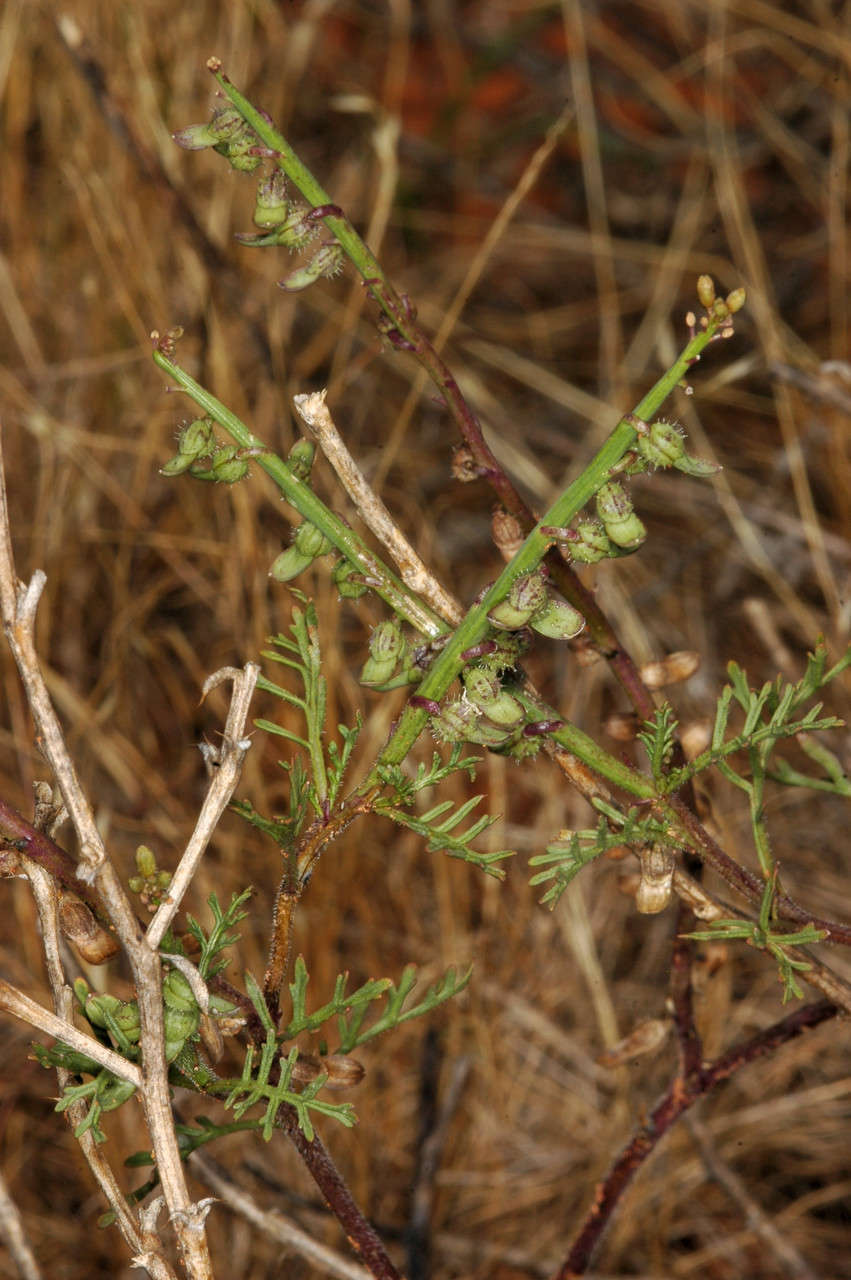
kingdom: Plantae
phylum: Tracheophyta
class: Magnoliopsida
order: Brassicales
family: Brassicaceae
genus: Carrichtera
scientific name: Carrichtera annua
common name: Cress rocket
